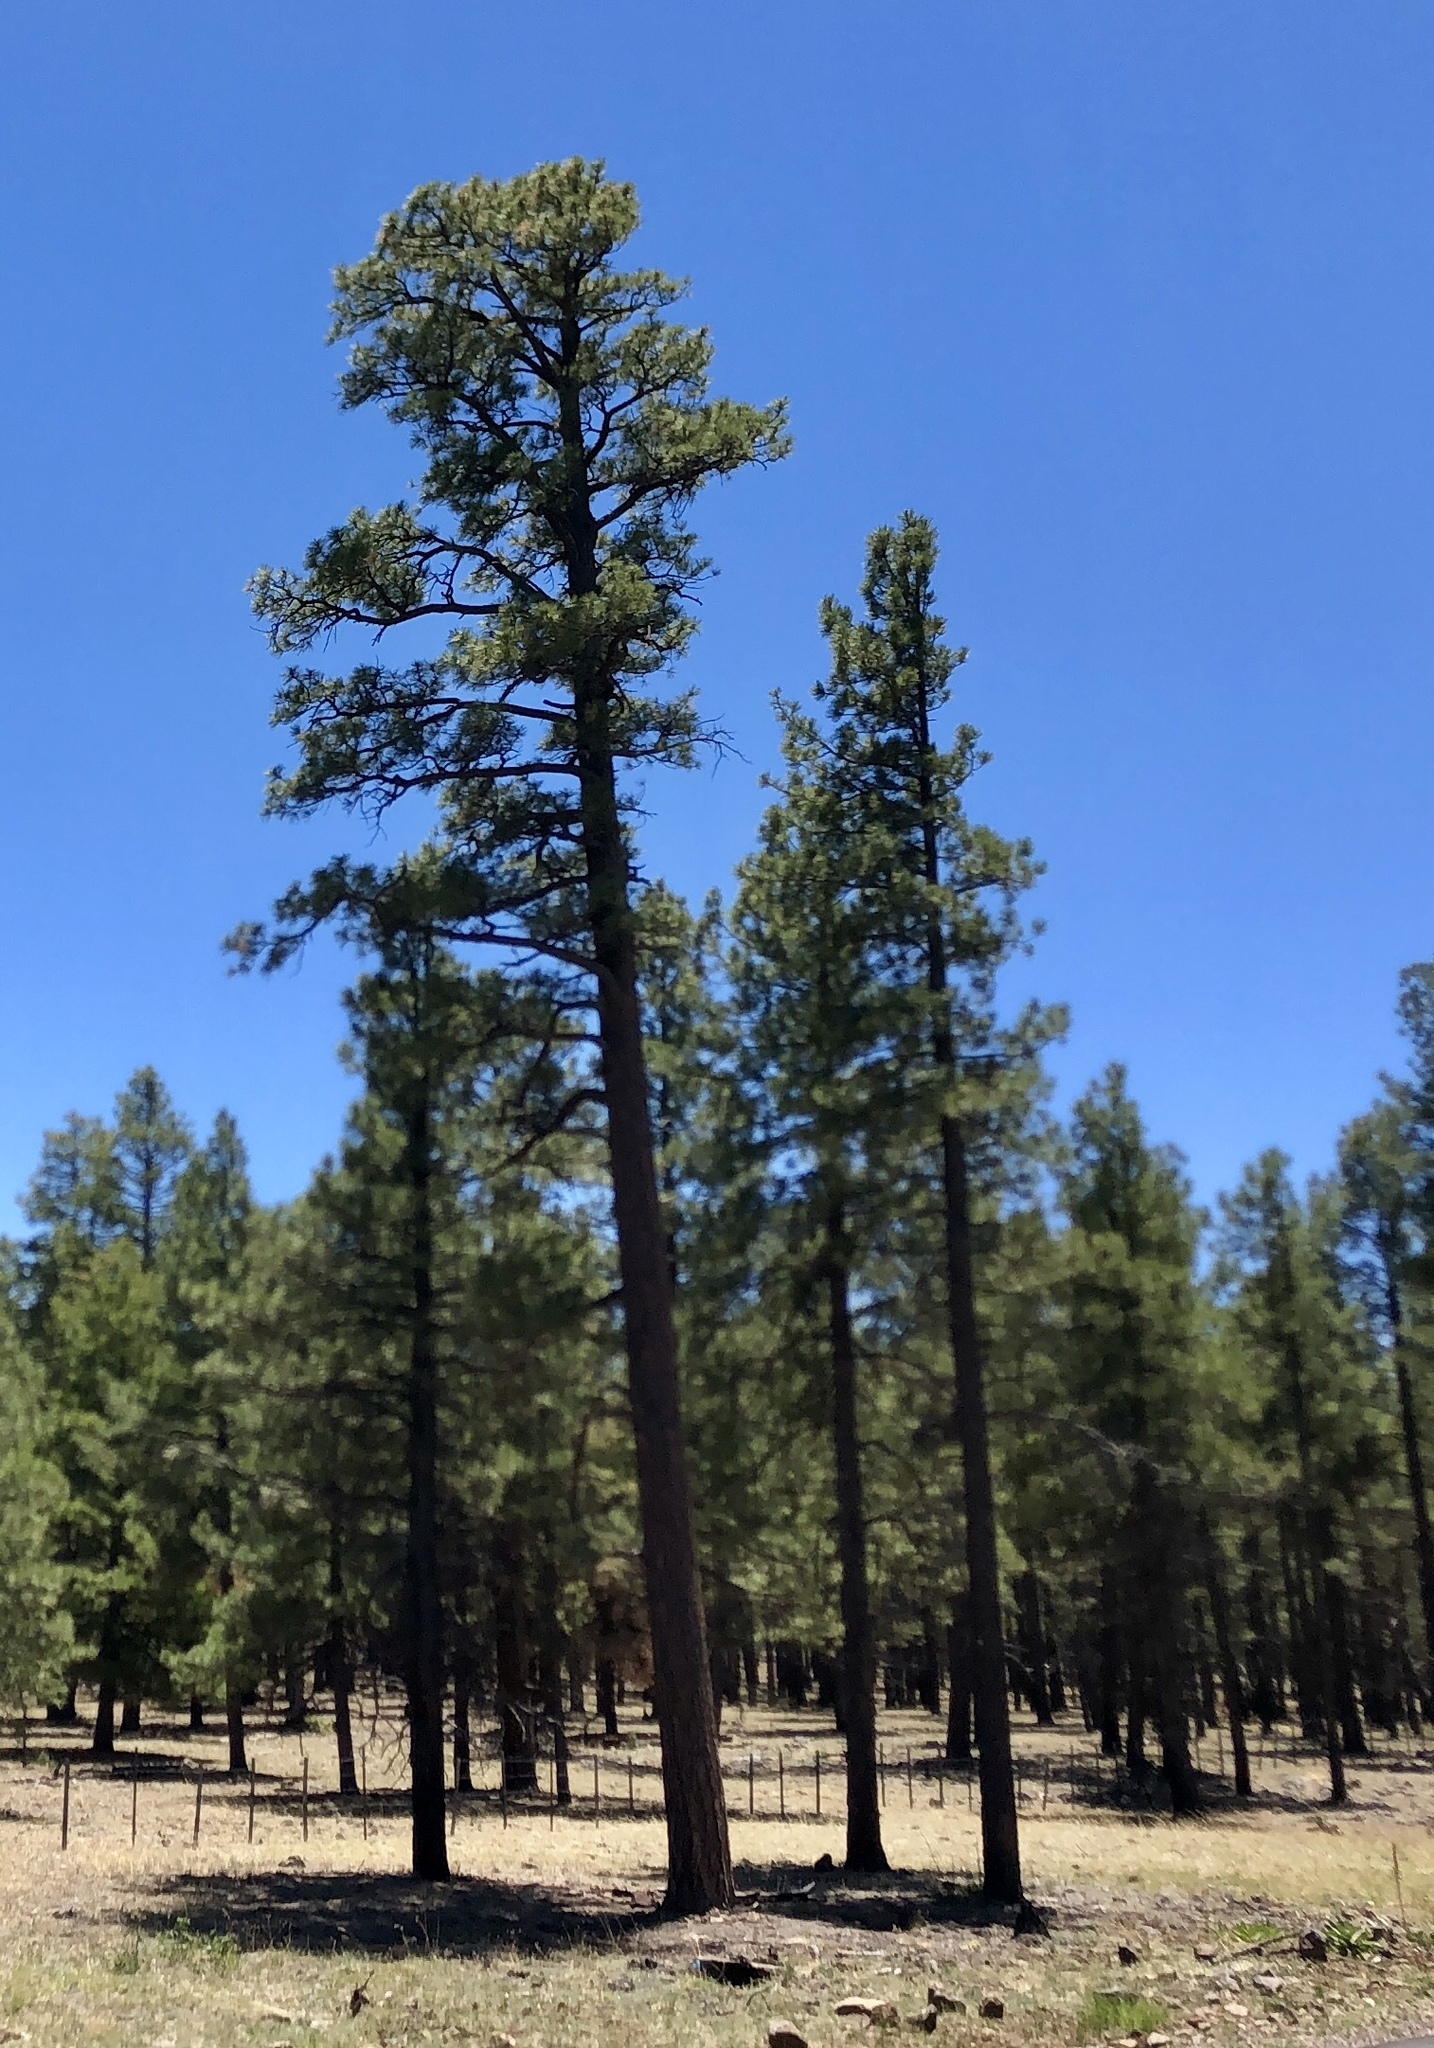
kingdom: Plantae
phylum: Tracheophyta
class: Pinopsida
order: Pinales
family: Pinaceae
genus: Pinus
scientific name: Pinus ponderosa
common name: Western yellow-pine
